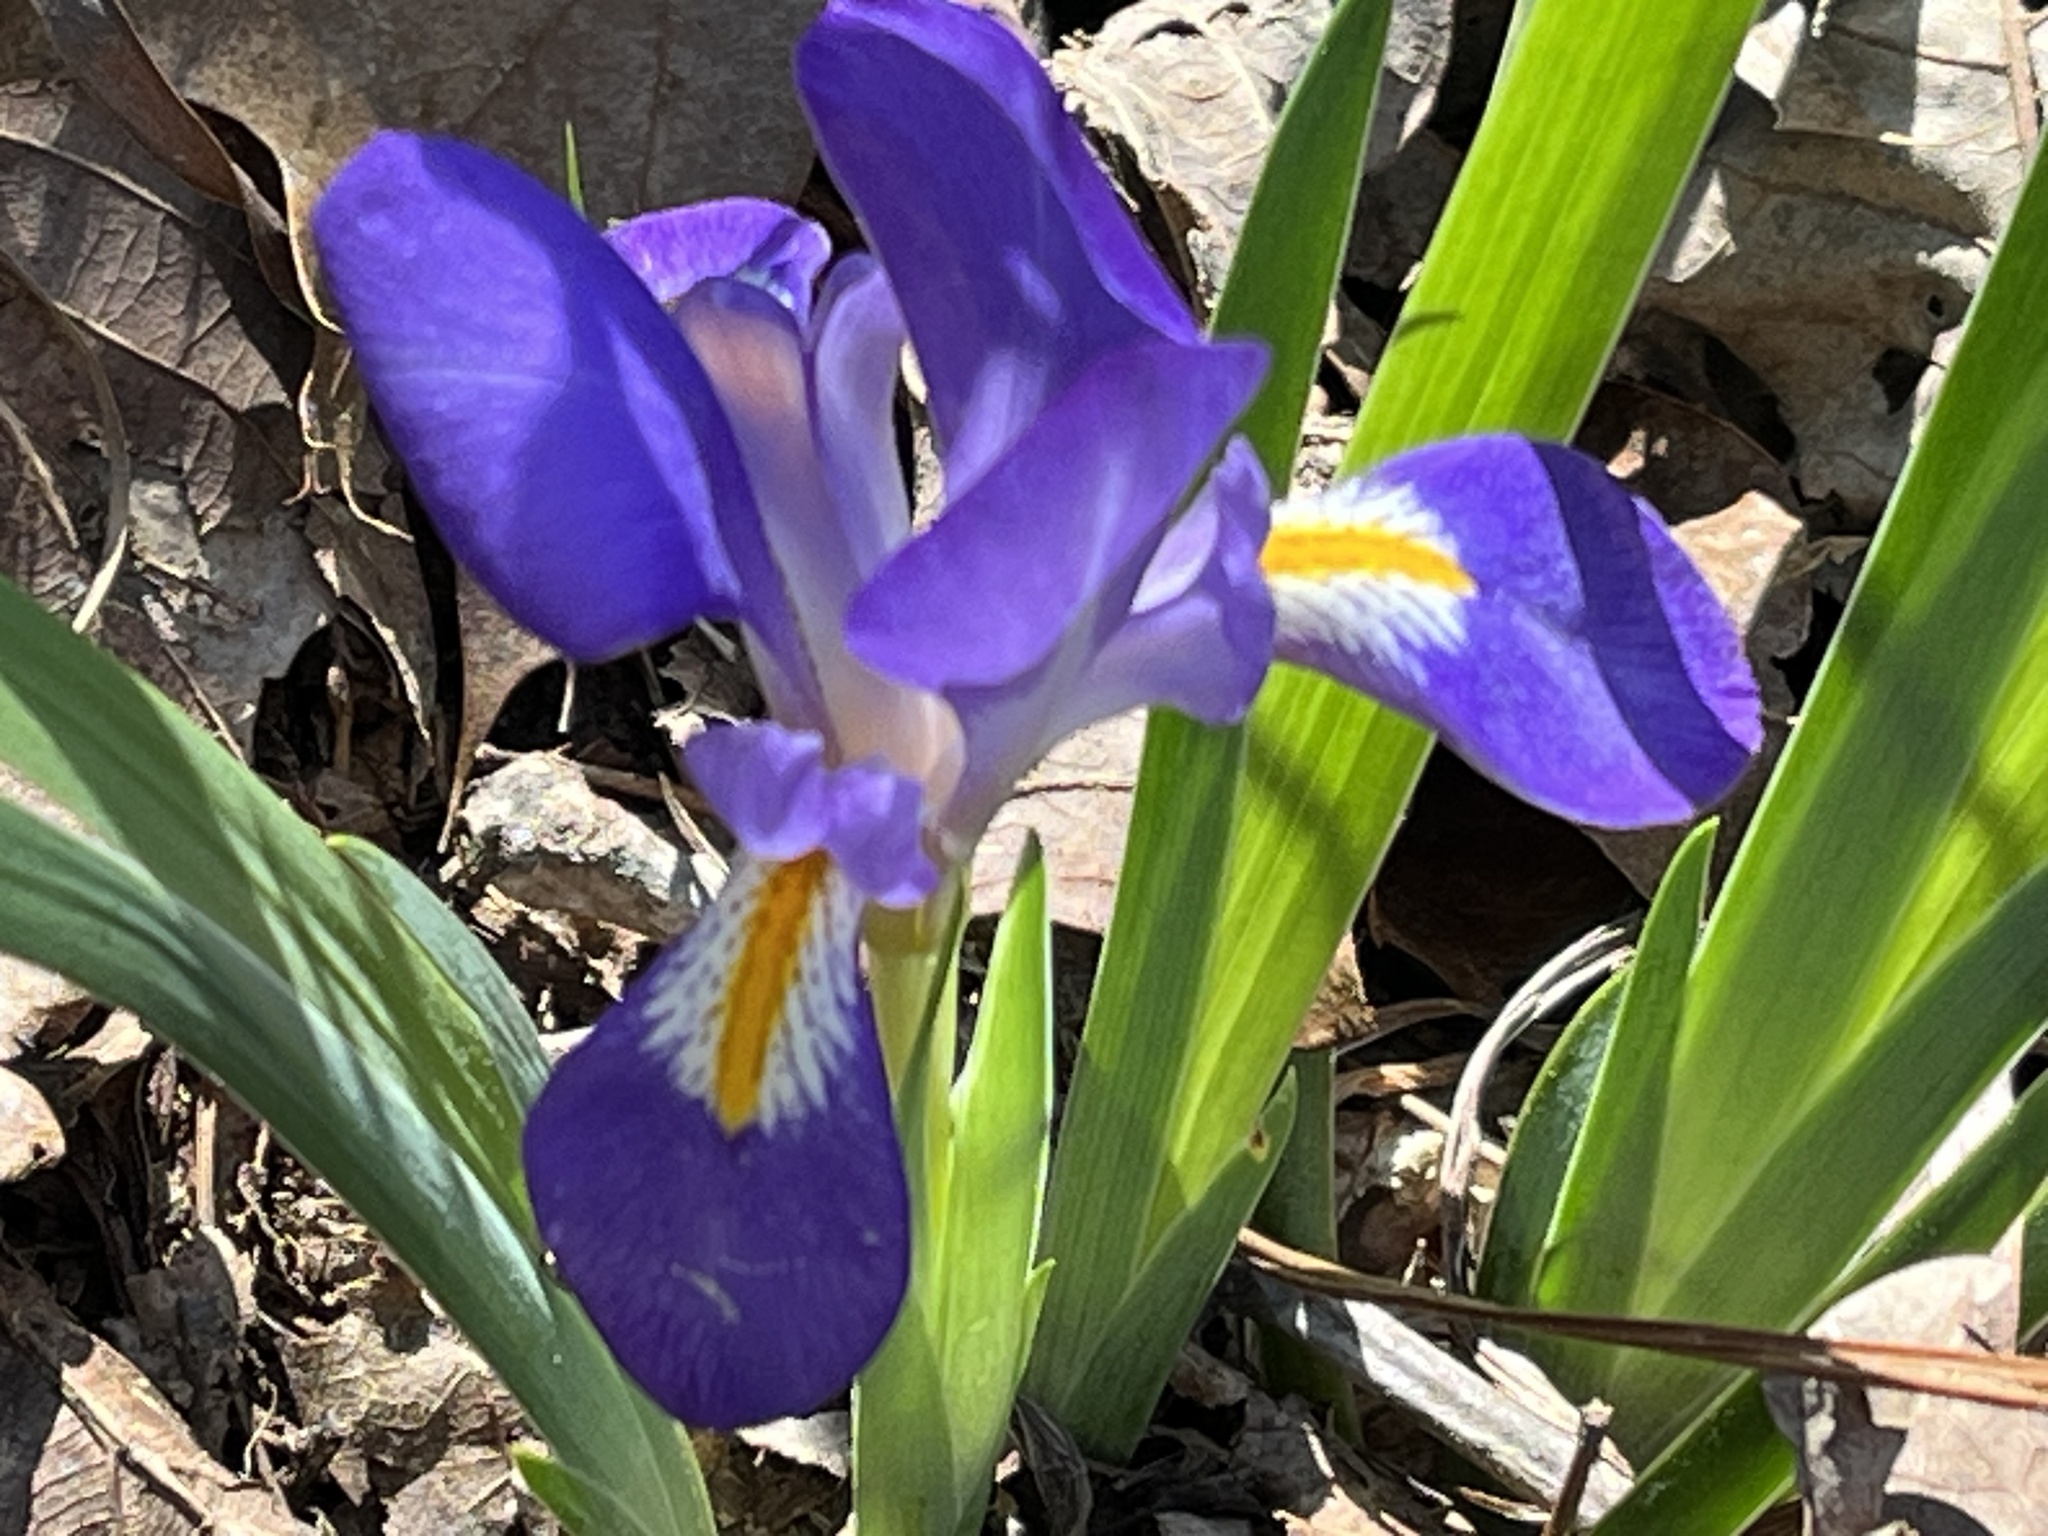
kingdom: Plantae
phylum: Tracheophyta
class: Liliopsida
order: Asparagales
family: Iridaceae
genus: Iris
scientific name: Iris verna
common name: Dwarf iris
